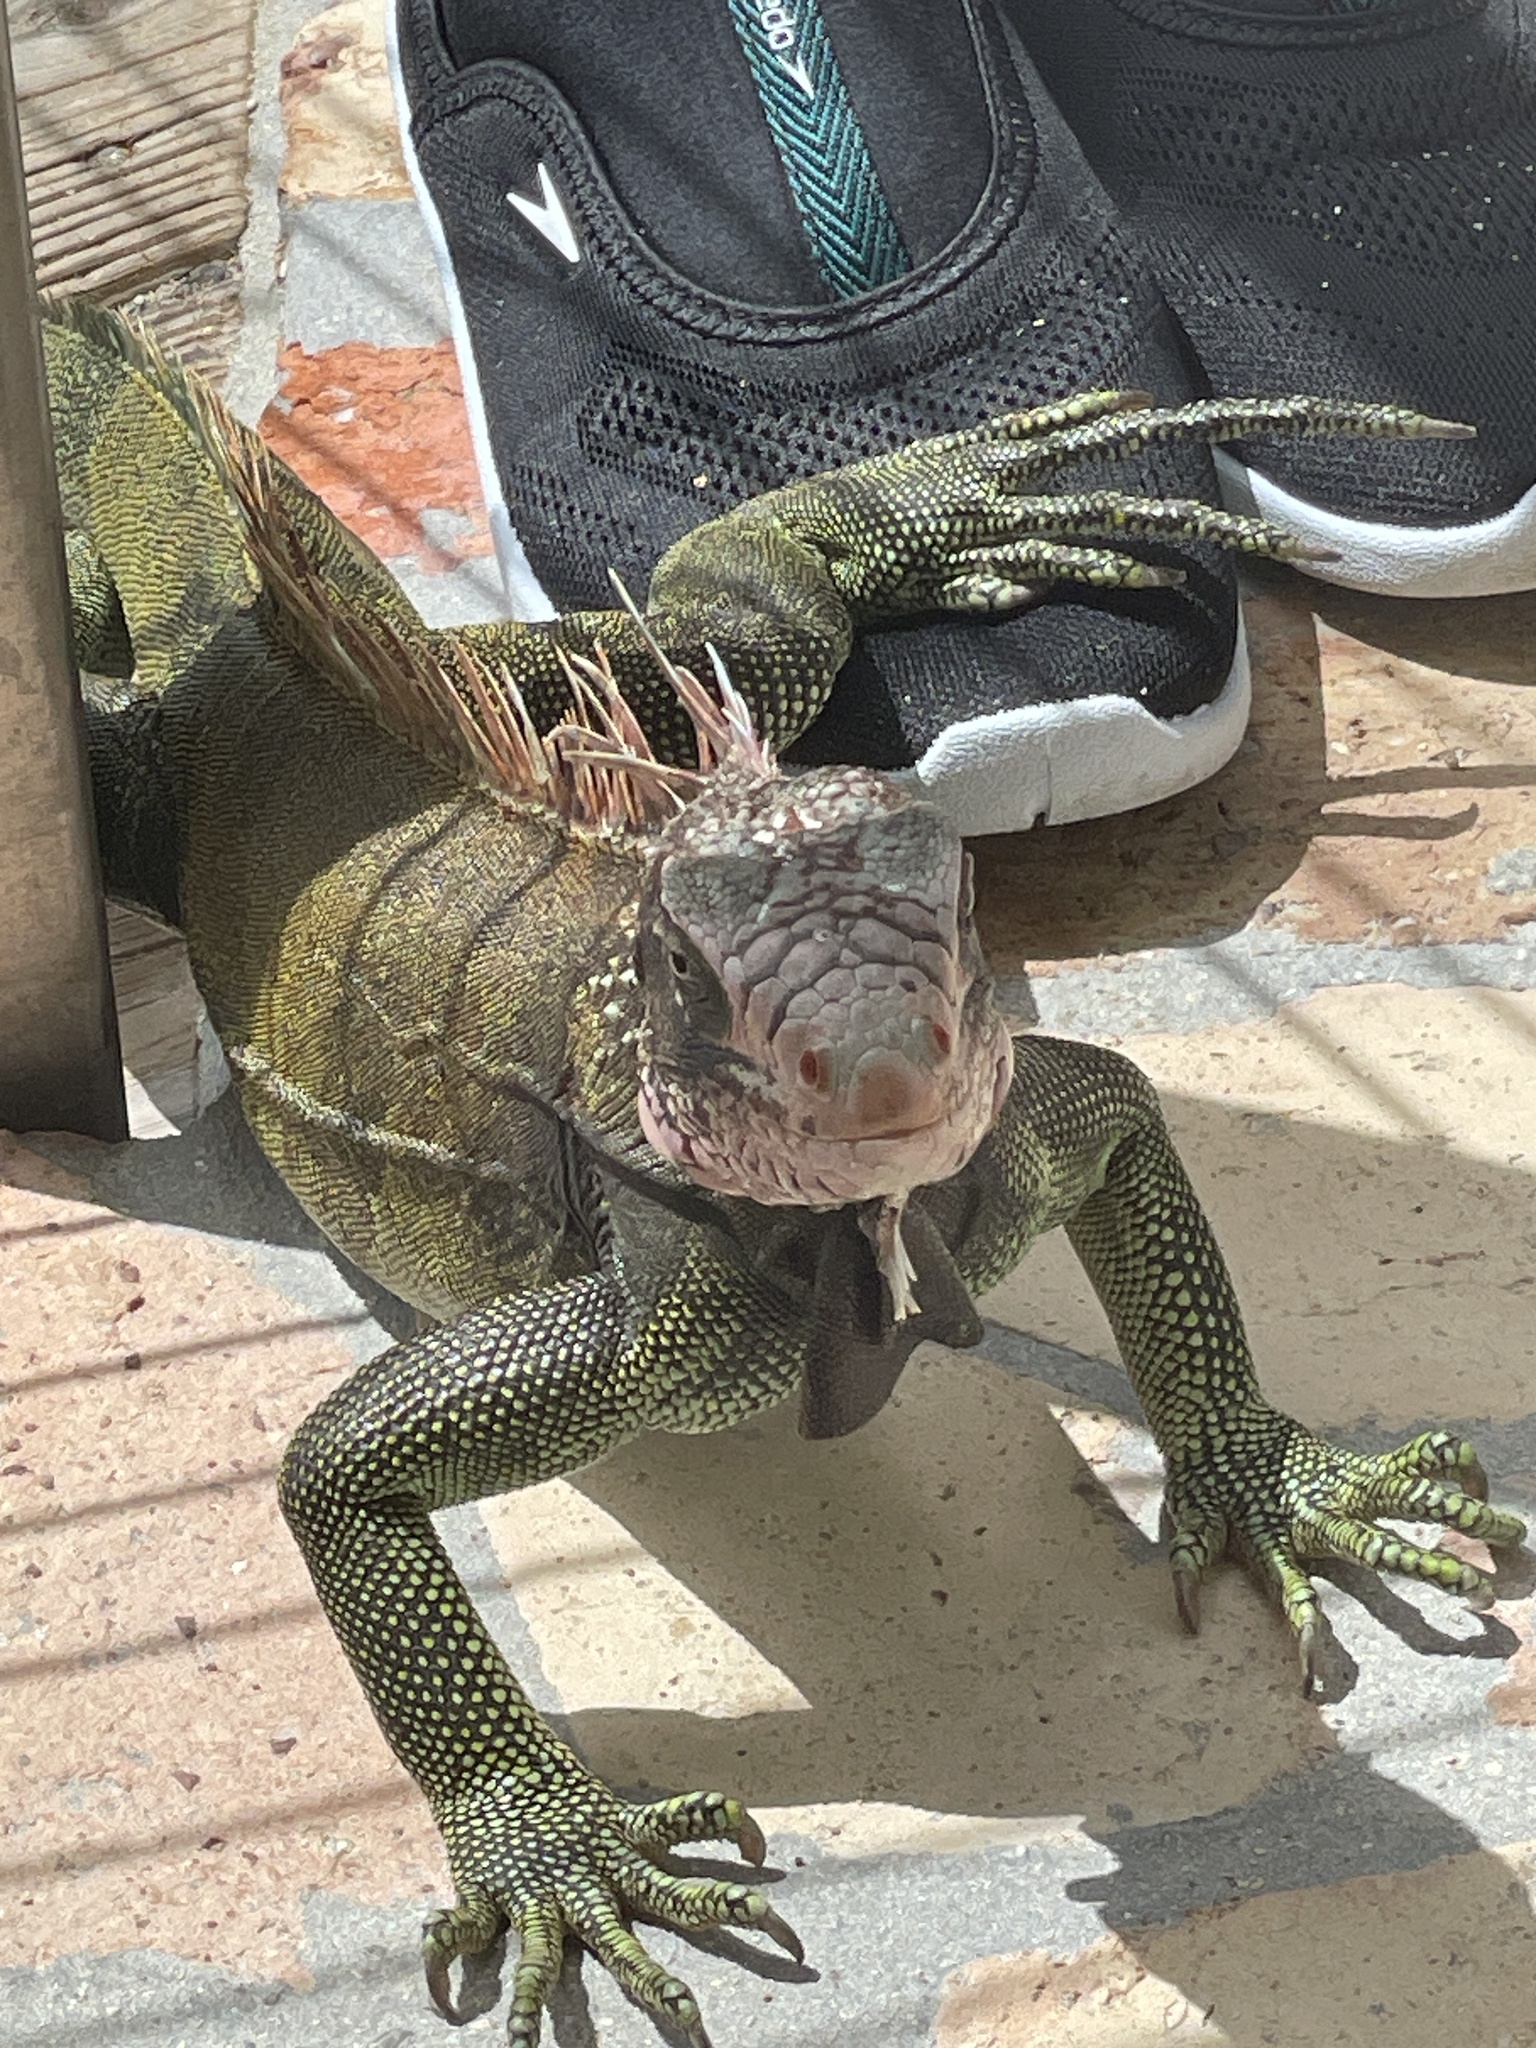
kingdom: Animalia
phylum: Chordata
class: Squamata
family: Iguanidae
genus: Iguana
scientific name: Iguana iguana
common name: Green iguana
